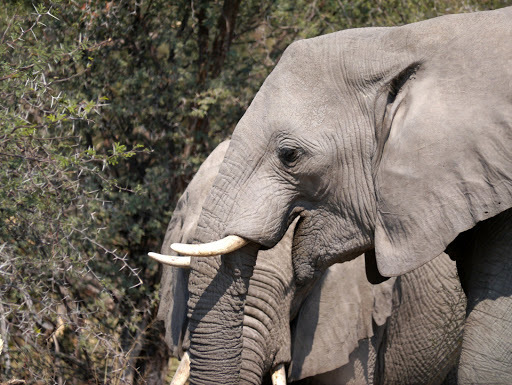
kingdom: Animalia
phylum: Chordata
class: Mammalia
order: Proboscidea
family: Elephantidae
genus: Loxodonta
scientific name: Loxodonta africana
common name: African elephant
